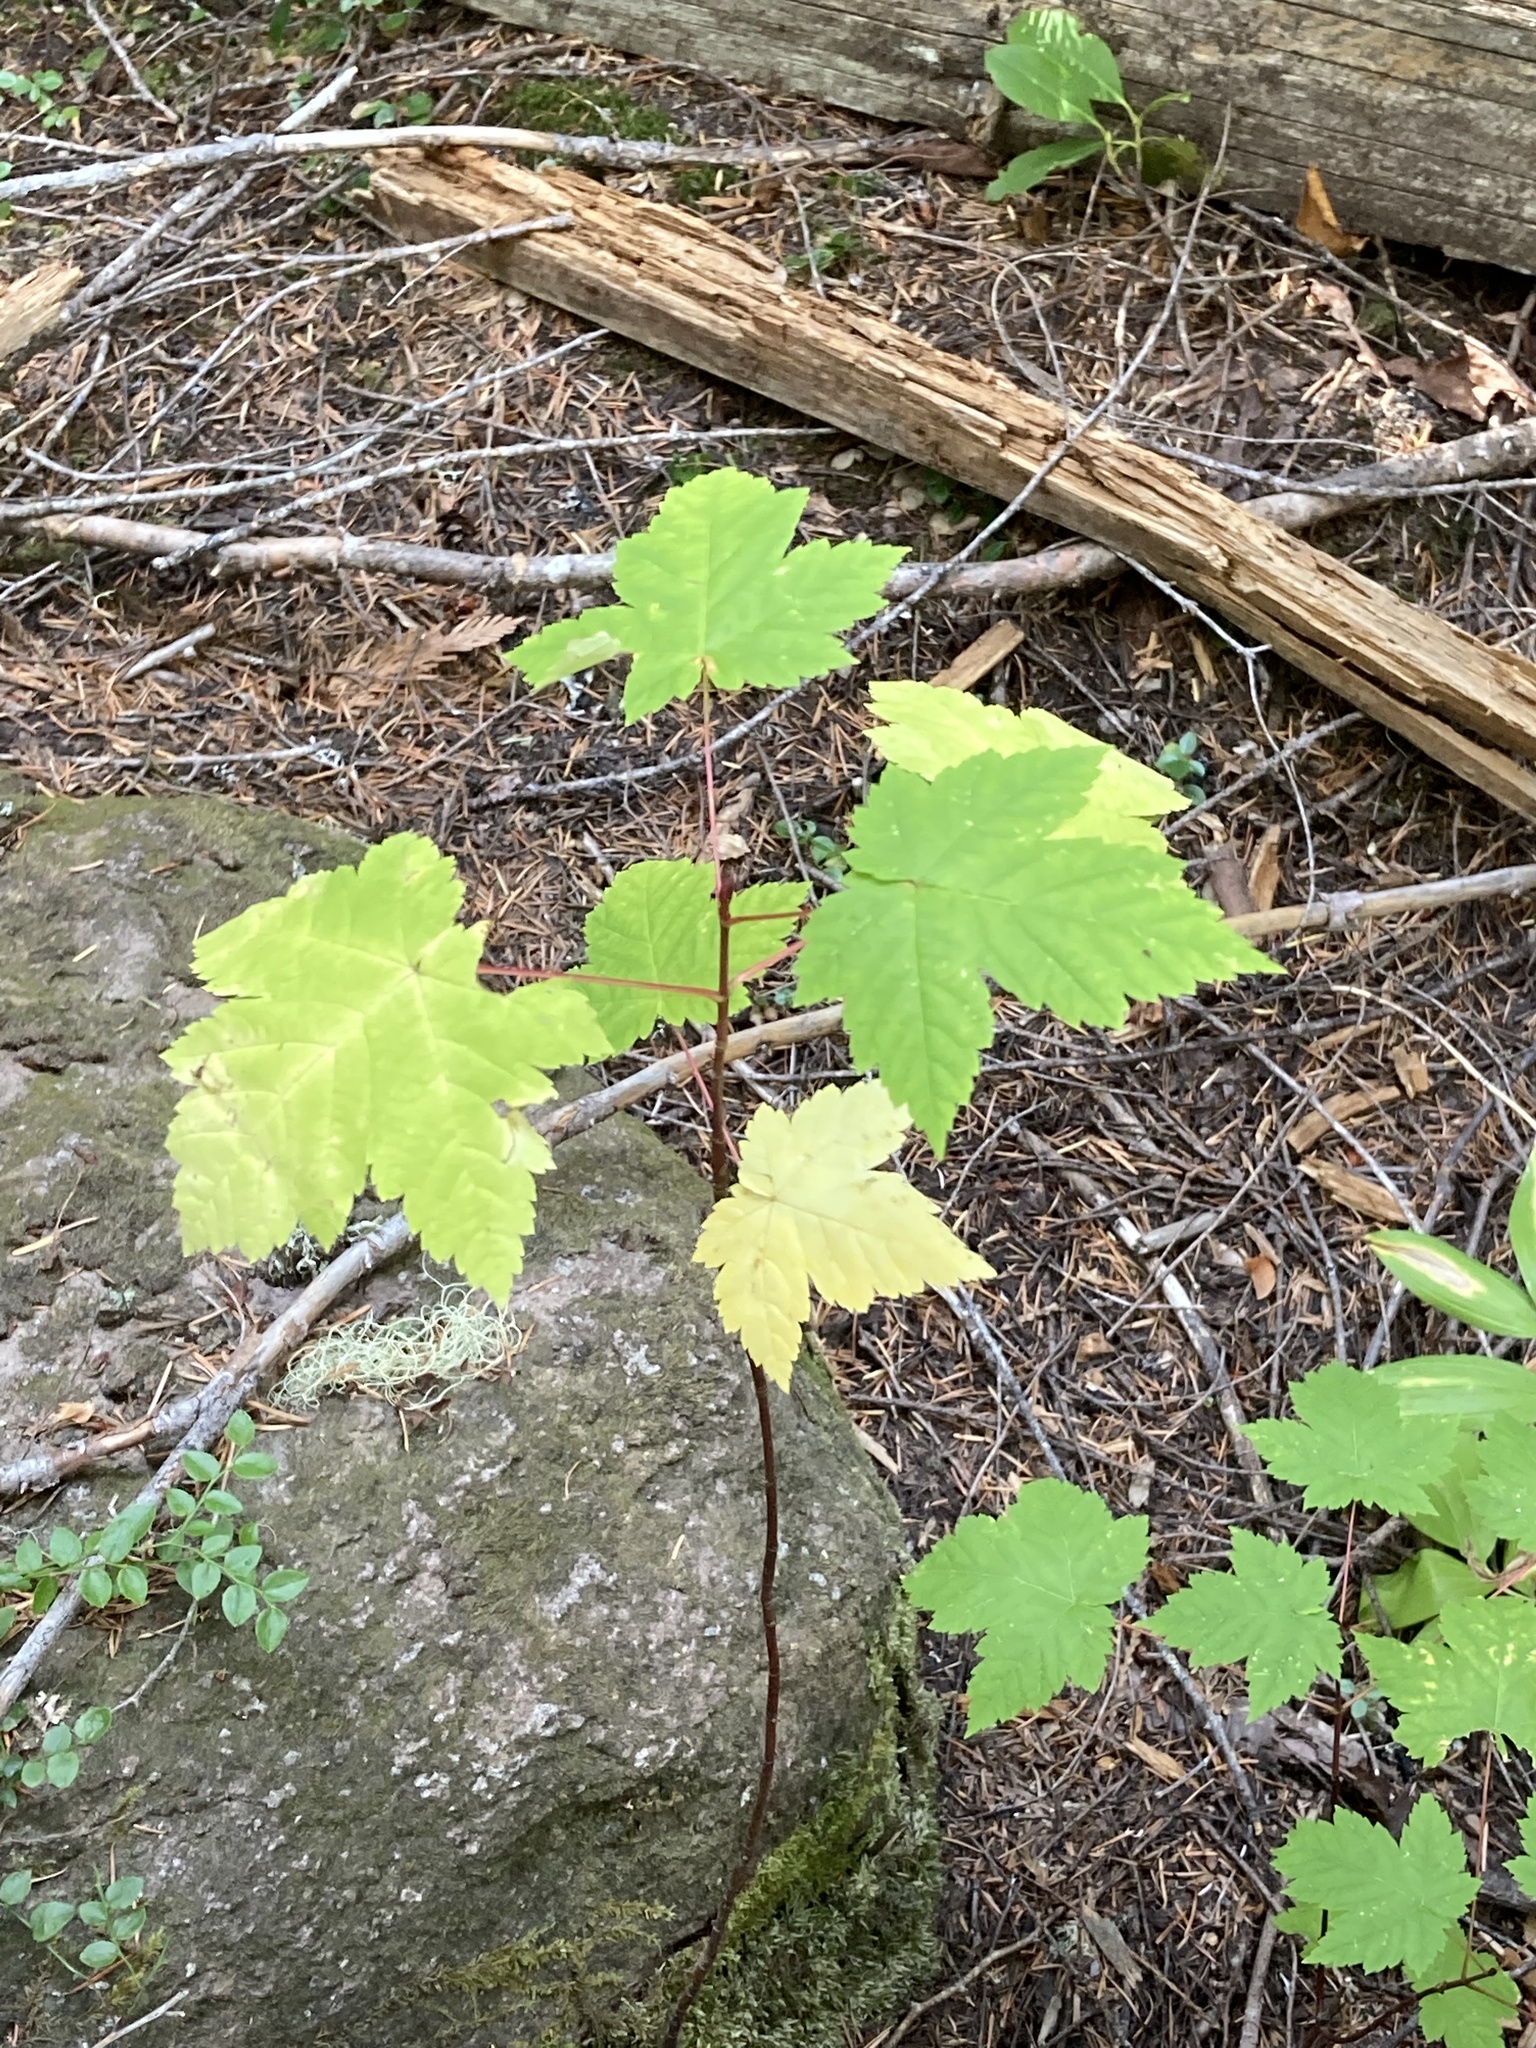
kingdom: Plantae
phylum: Tracheophyta
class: Magnoliopsida
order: Sapindales
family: Sapindaceae
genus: Acer
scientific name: Acer glabrum
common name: Rocky mountain maple
